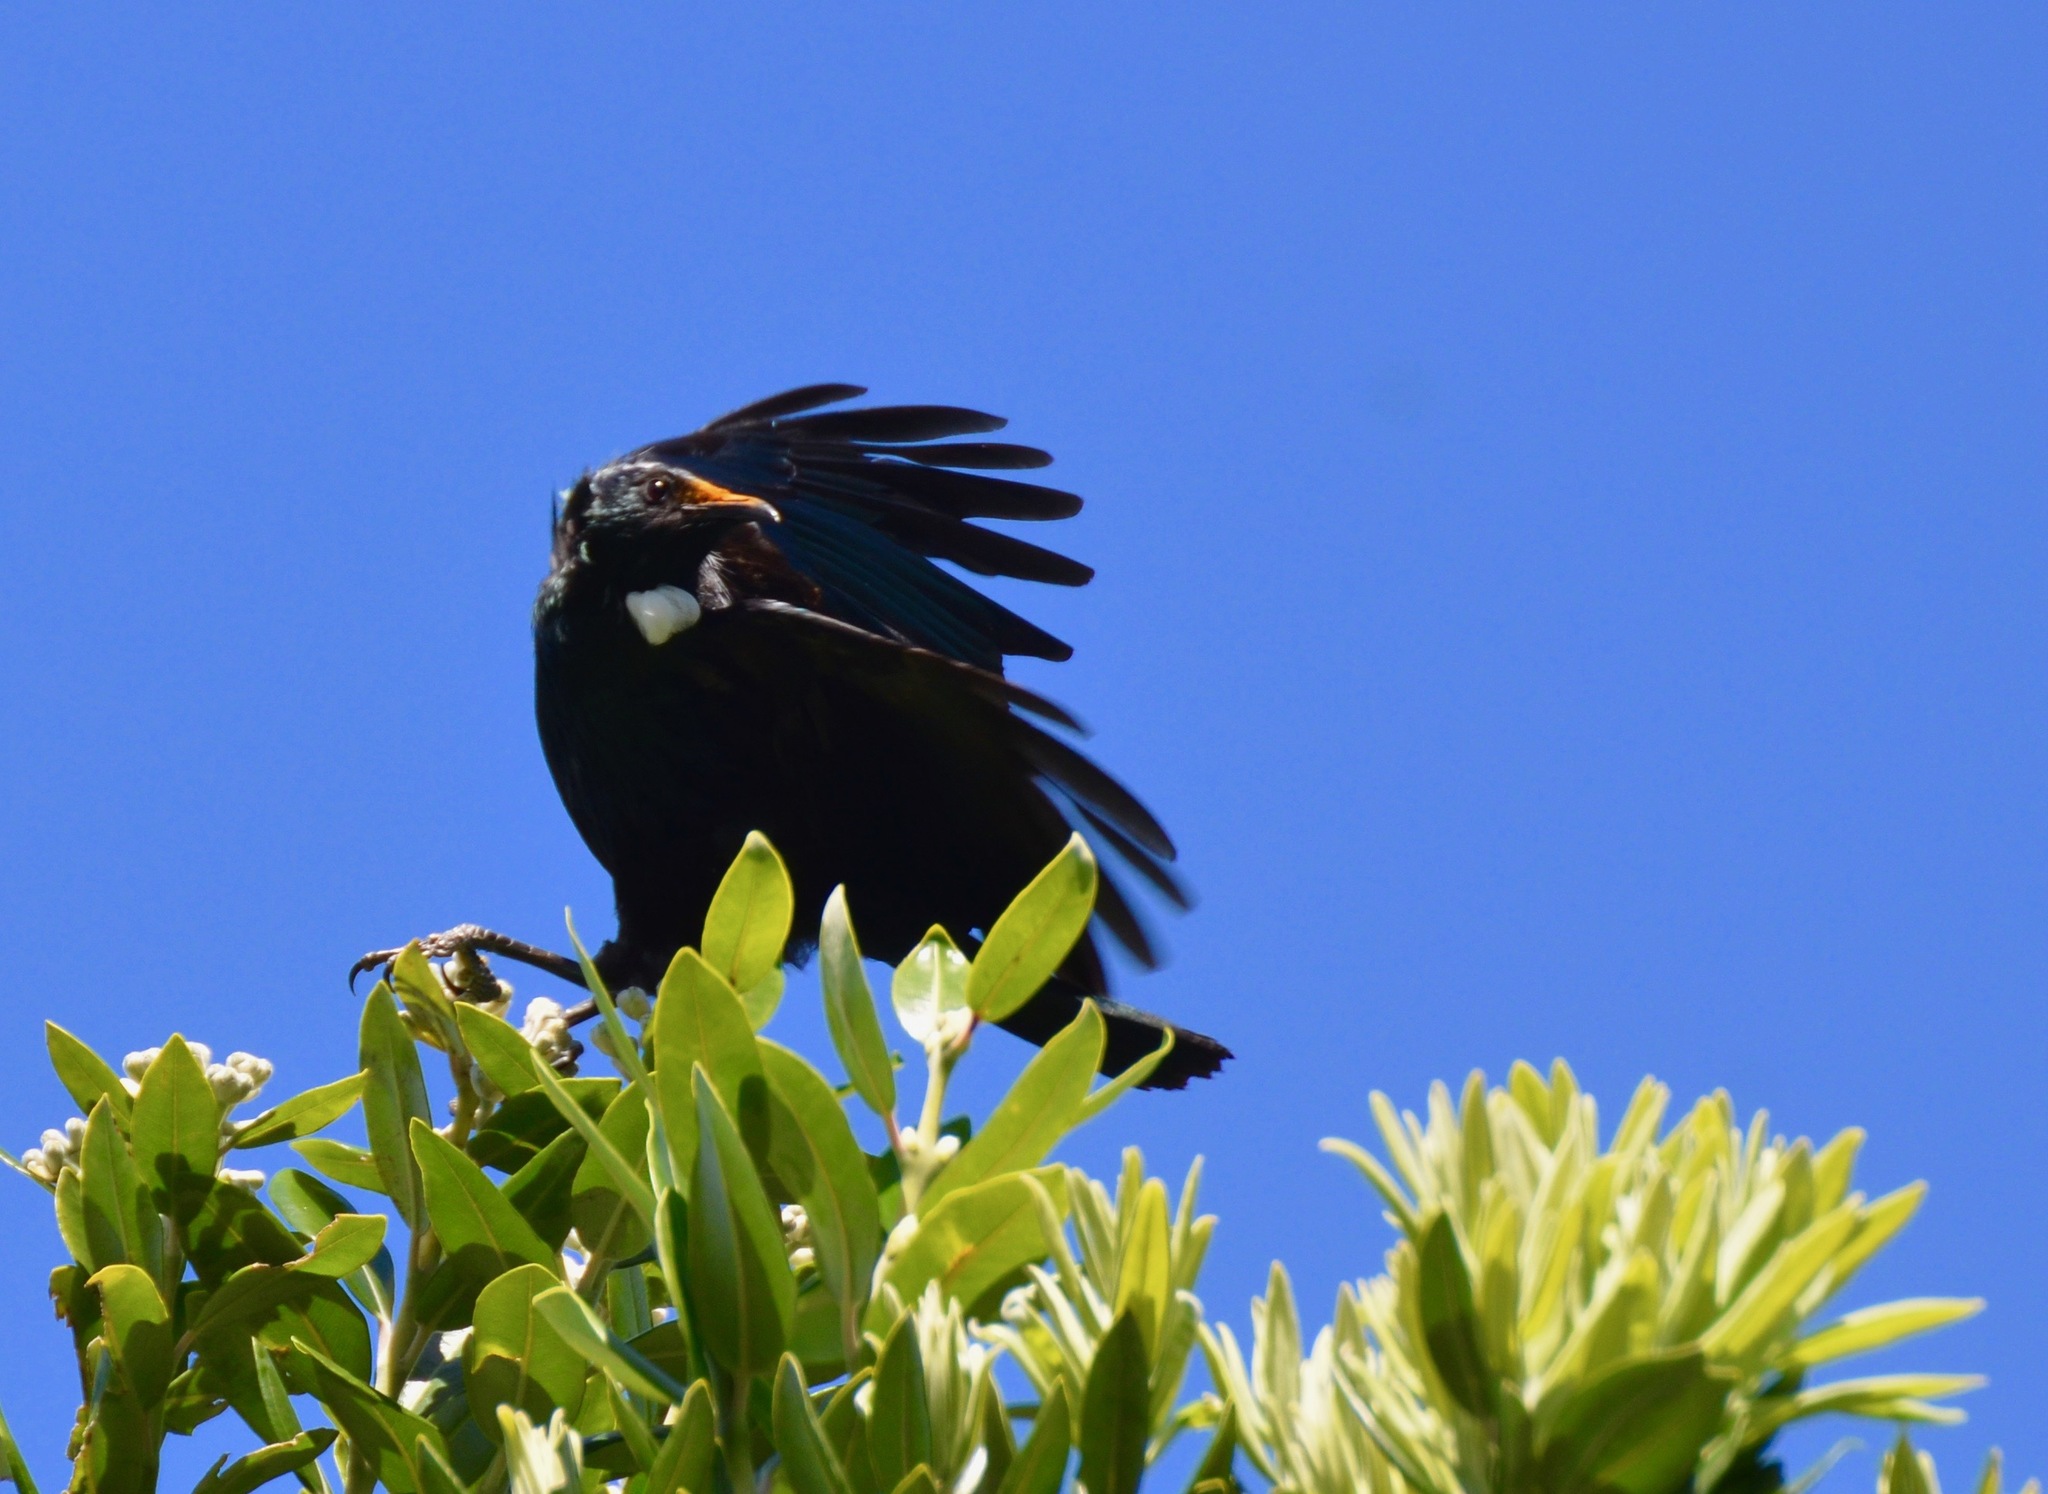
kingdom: Animalia
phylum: Chordata
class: Aves
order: Passeriformes
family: Meliphagidae
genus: Prosthemadera
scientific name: Prosthemadera novaeseelandiae
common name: Tui
